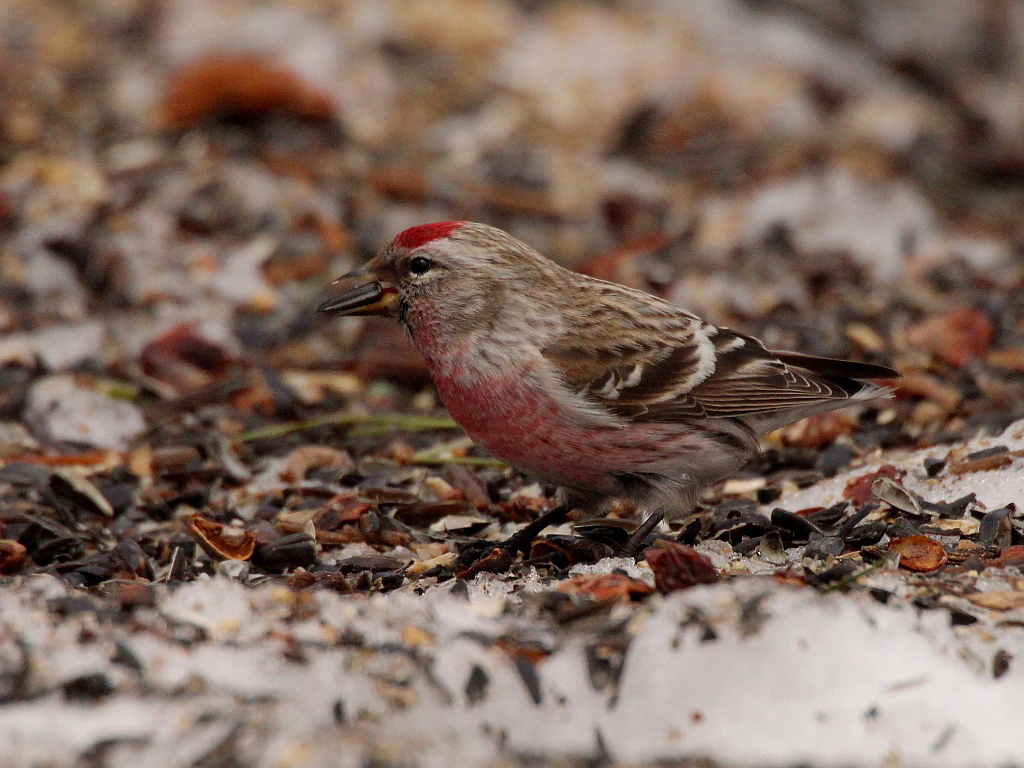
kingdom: Animalia
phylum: Chordata
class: Aves
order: Passeriformes
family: Fringillidae
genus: Acanthis
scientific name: Acanthis flammea
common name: Common redpoll
